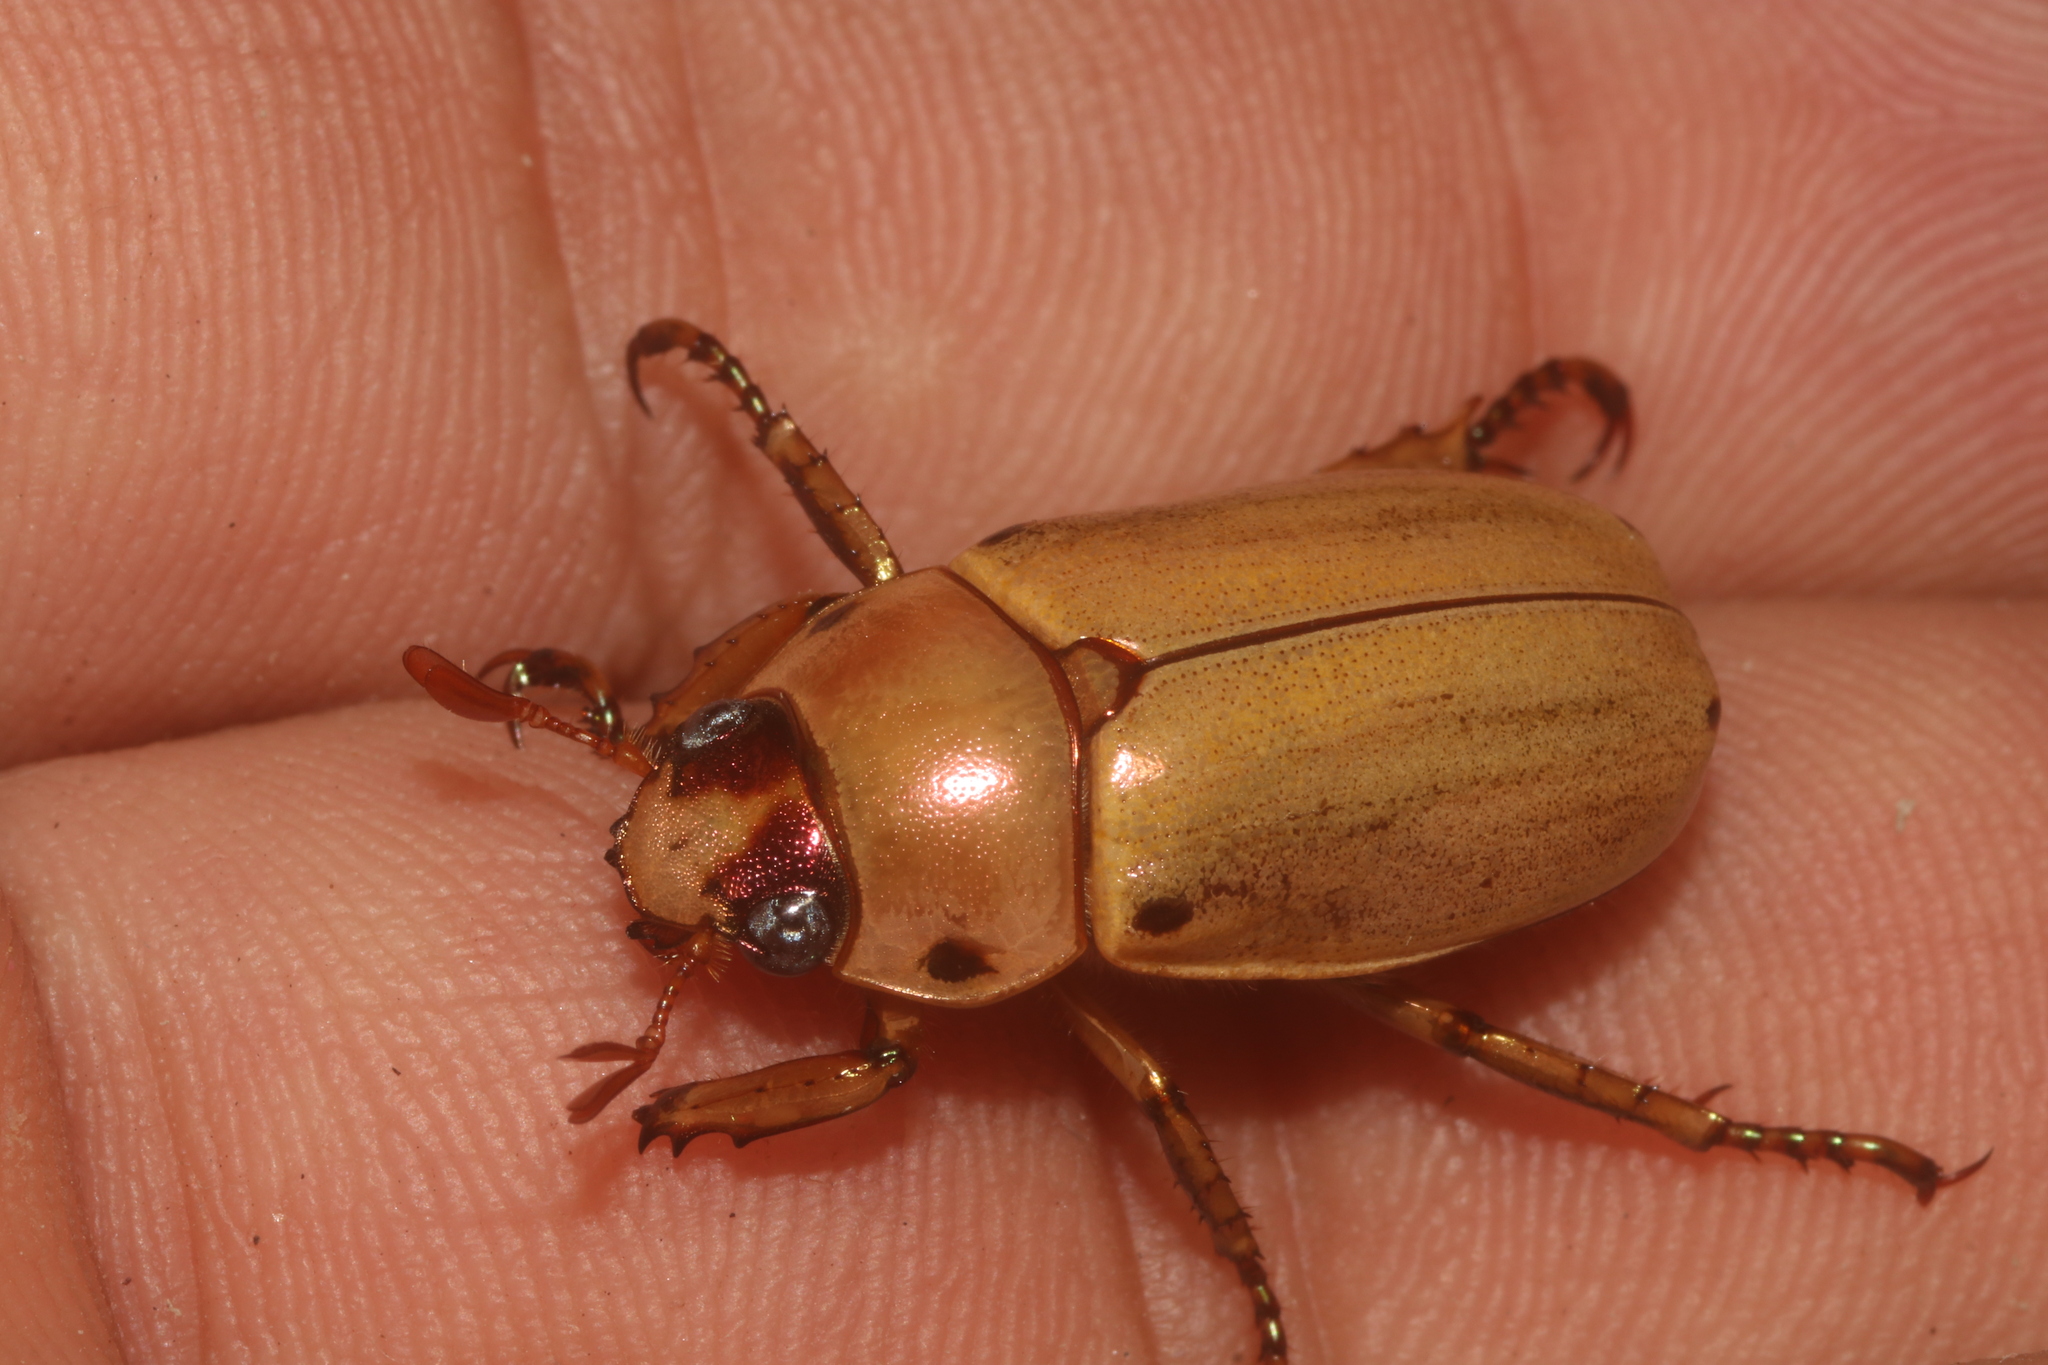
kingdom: Animalia
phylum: Arthropoda
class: Insecta
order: Coleoptera
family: Scarabaeidae
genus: Pelidnota
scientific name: Pelidnota notata
